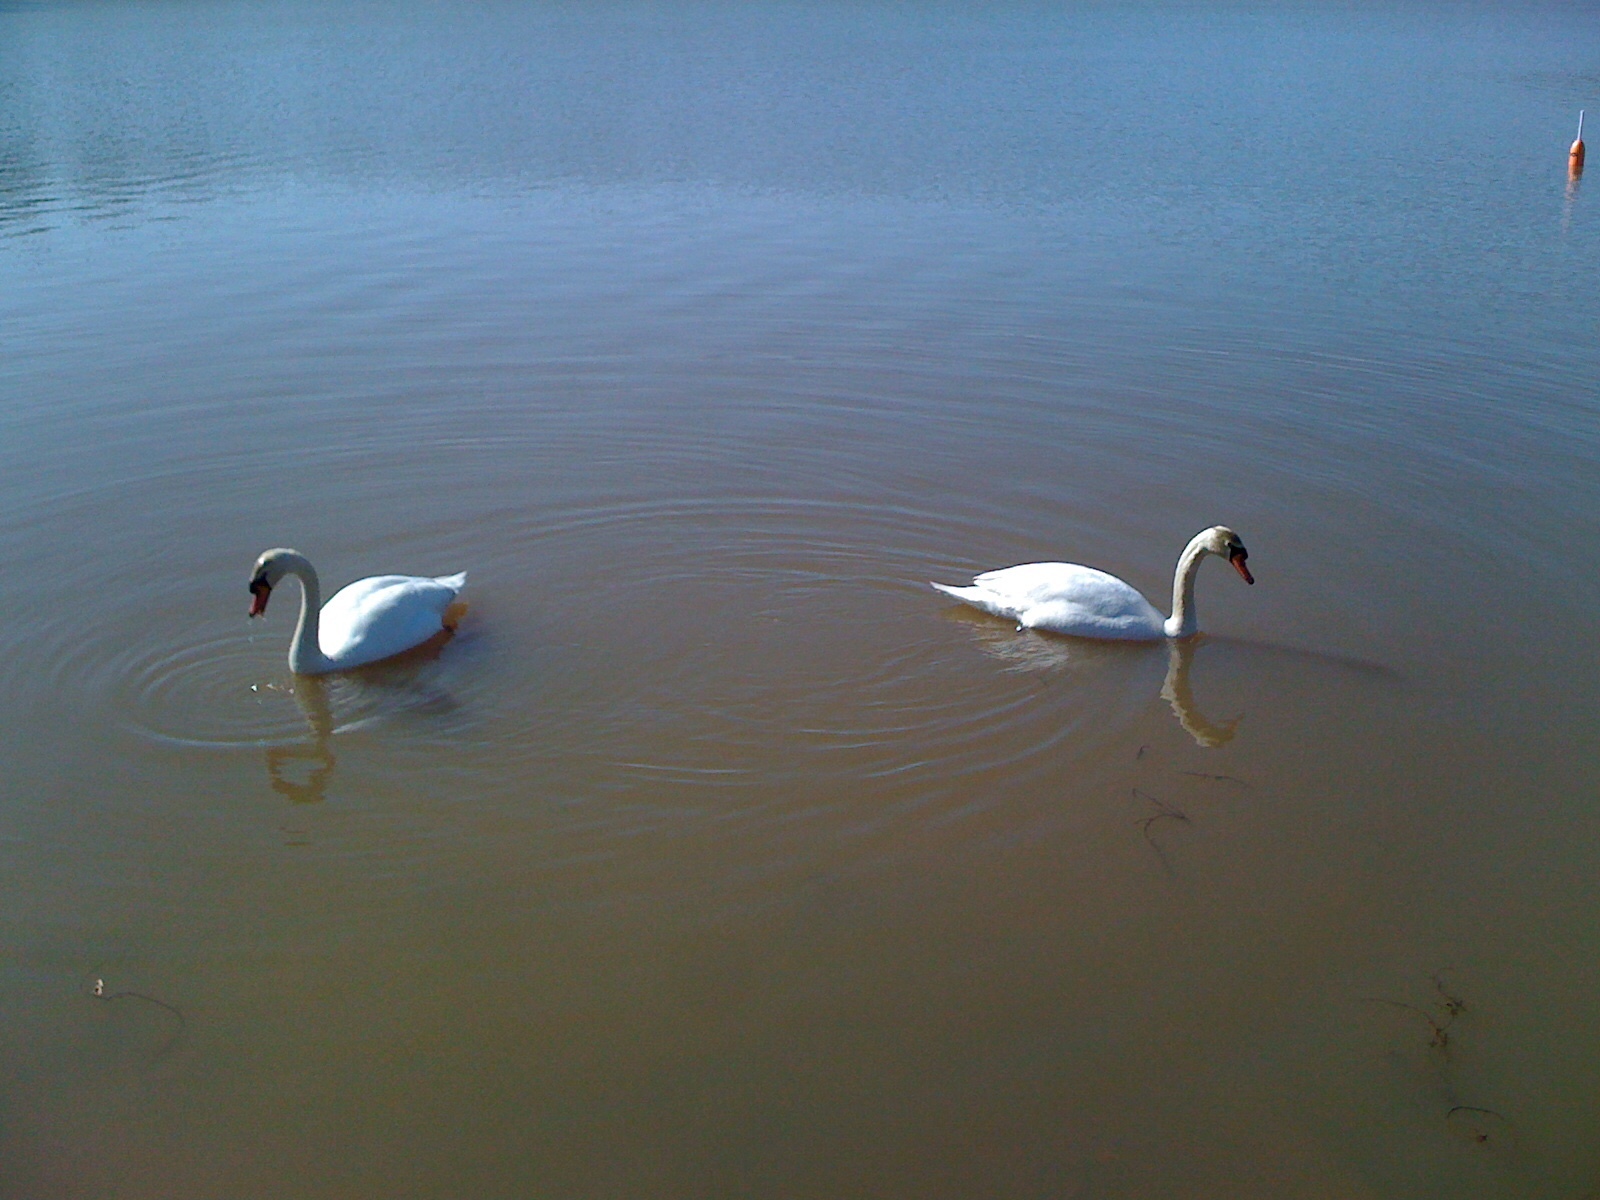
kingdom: Animalia
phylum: Chordata
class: Aves
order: Anseriformes
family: Anatidae
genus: Cygnus
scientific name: Cygnus olor
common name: Mute swan
